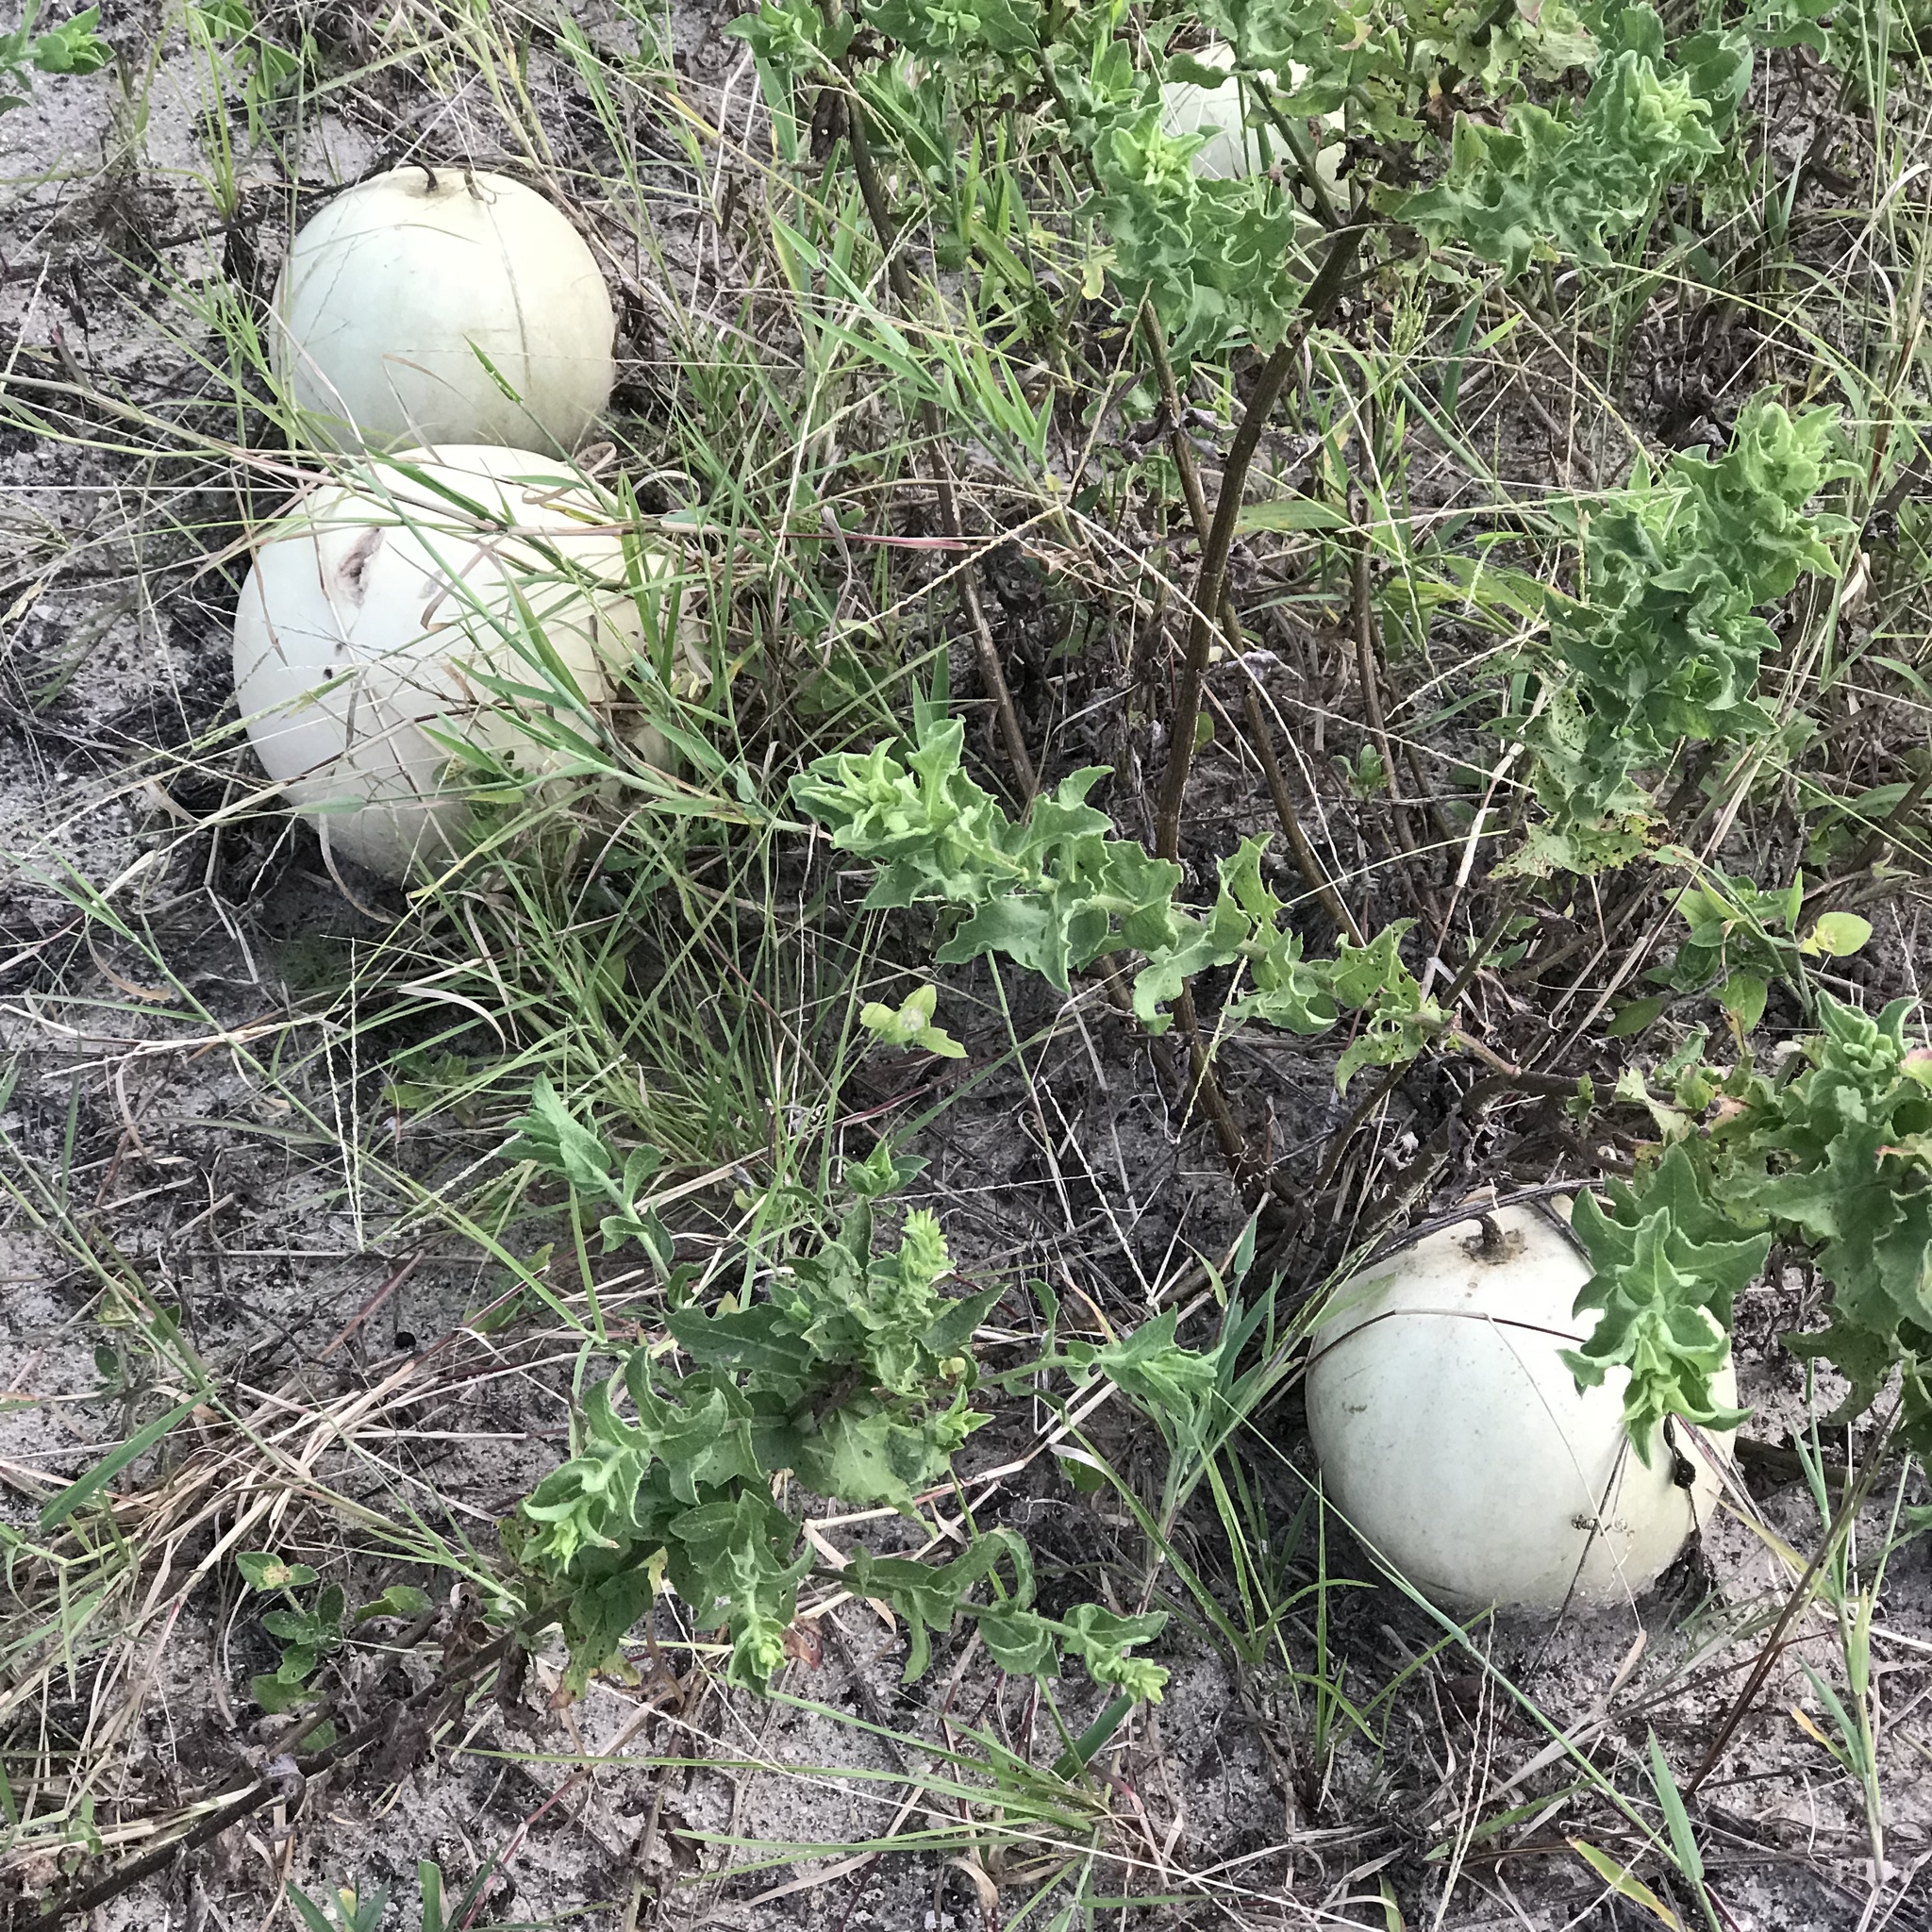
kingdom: Plantae
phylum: Tracheophyta
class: Magnoliopsida
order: Cucurbitales
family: Cucurbitaceae
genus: Citrullus
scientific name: Citrullus amarus
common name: Fodder-melon
